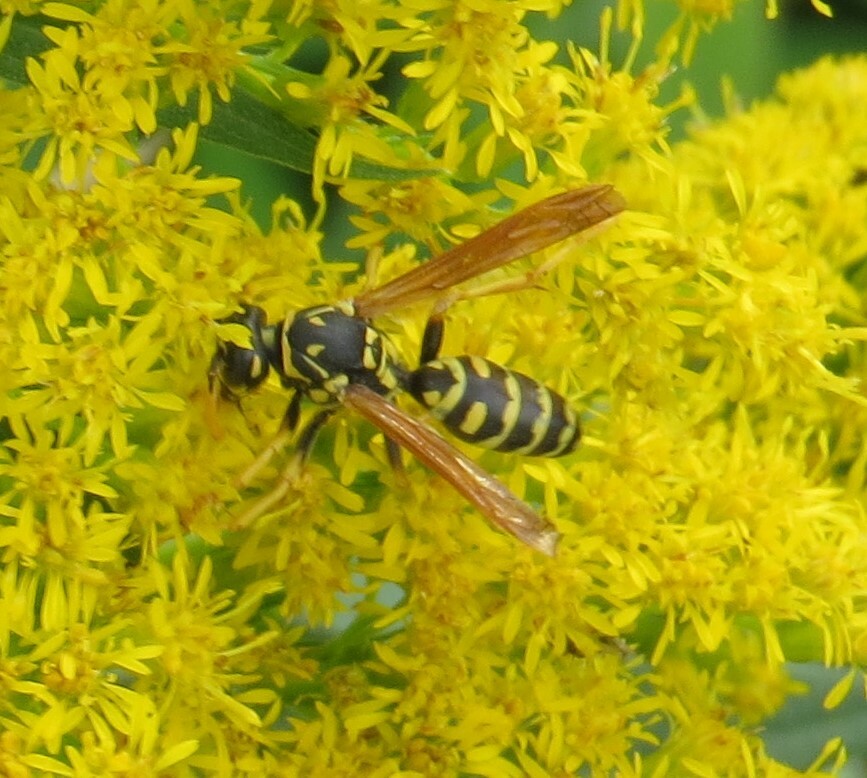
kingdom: Animalia
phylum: Arthropoda
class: Insecta
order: Hymenoptera
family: Eumenidae
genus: Polistes
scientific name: Polistes dominula
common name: Paper wasp
